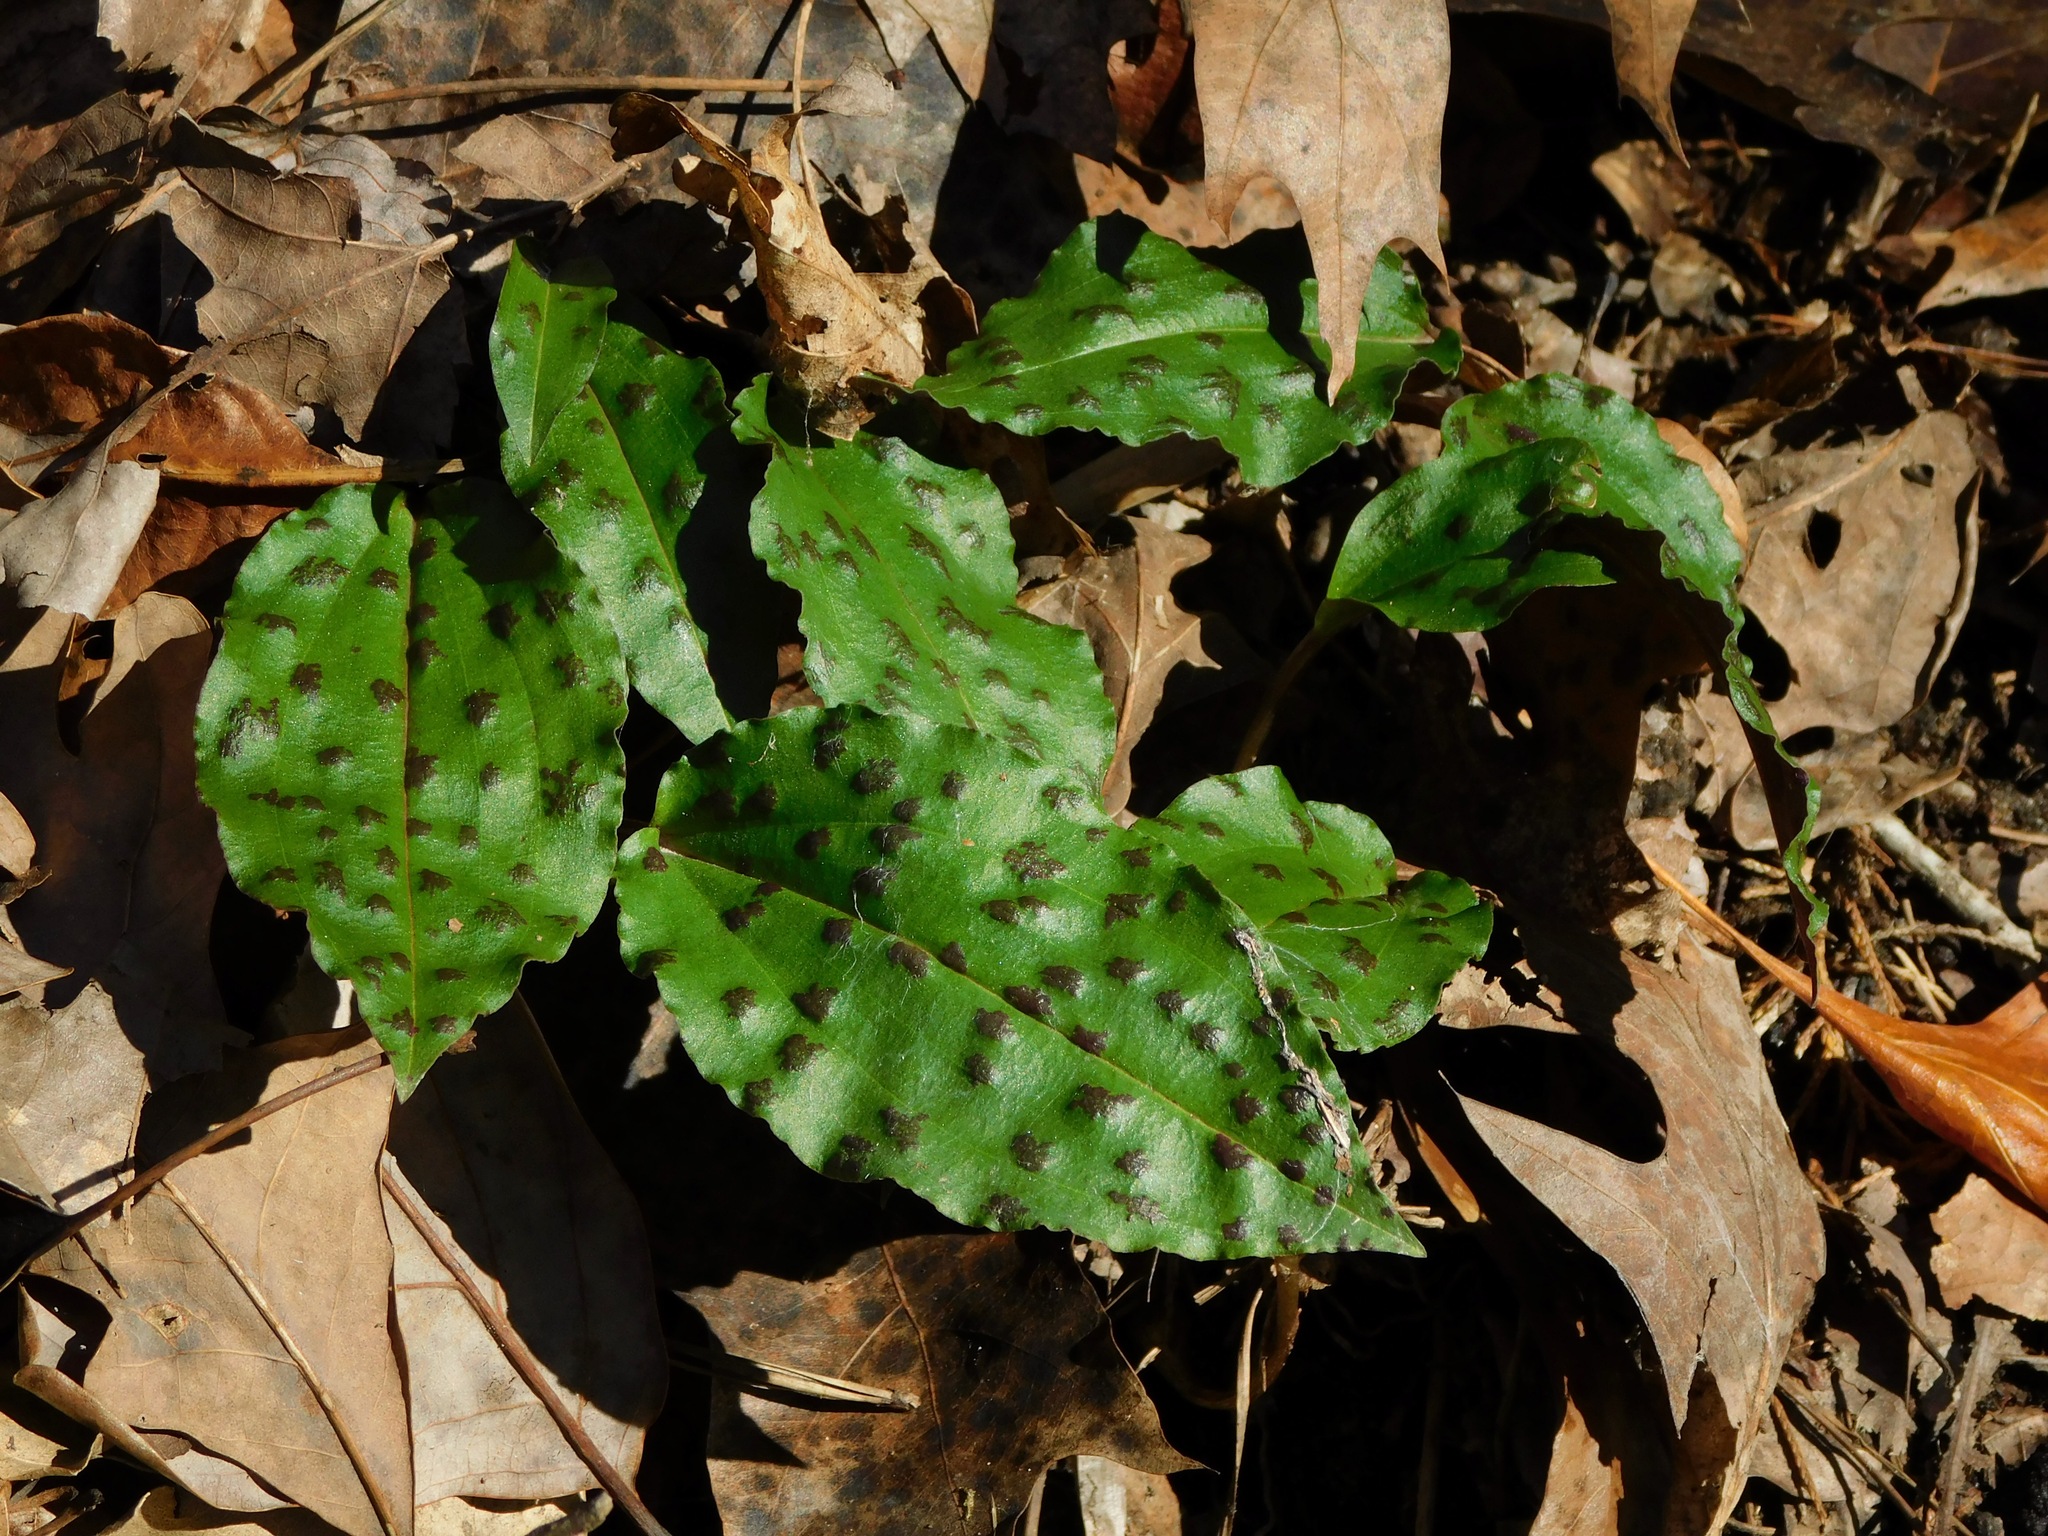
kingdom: Plantae
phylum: Tracheophyta
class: Liliopsida
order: Asparagales
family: Orchidaceae
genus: Tipularia
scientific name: Tipularia discolor
